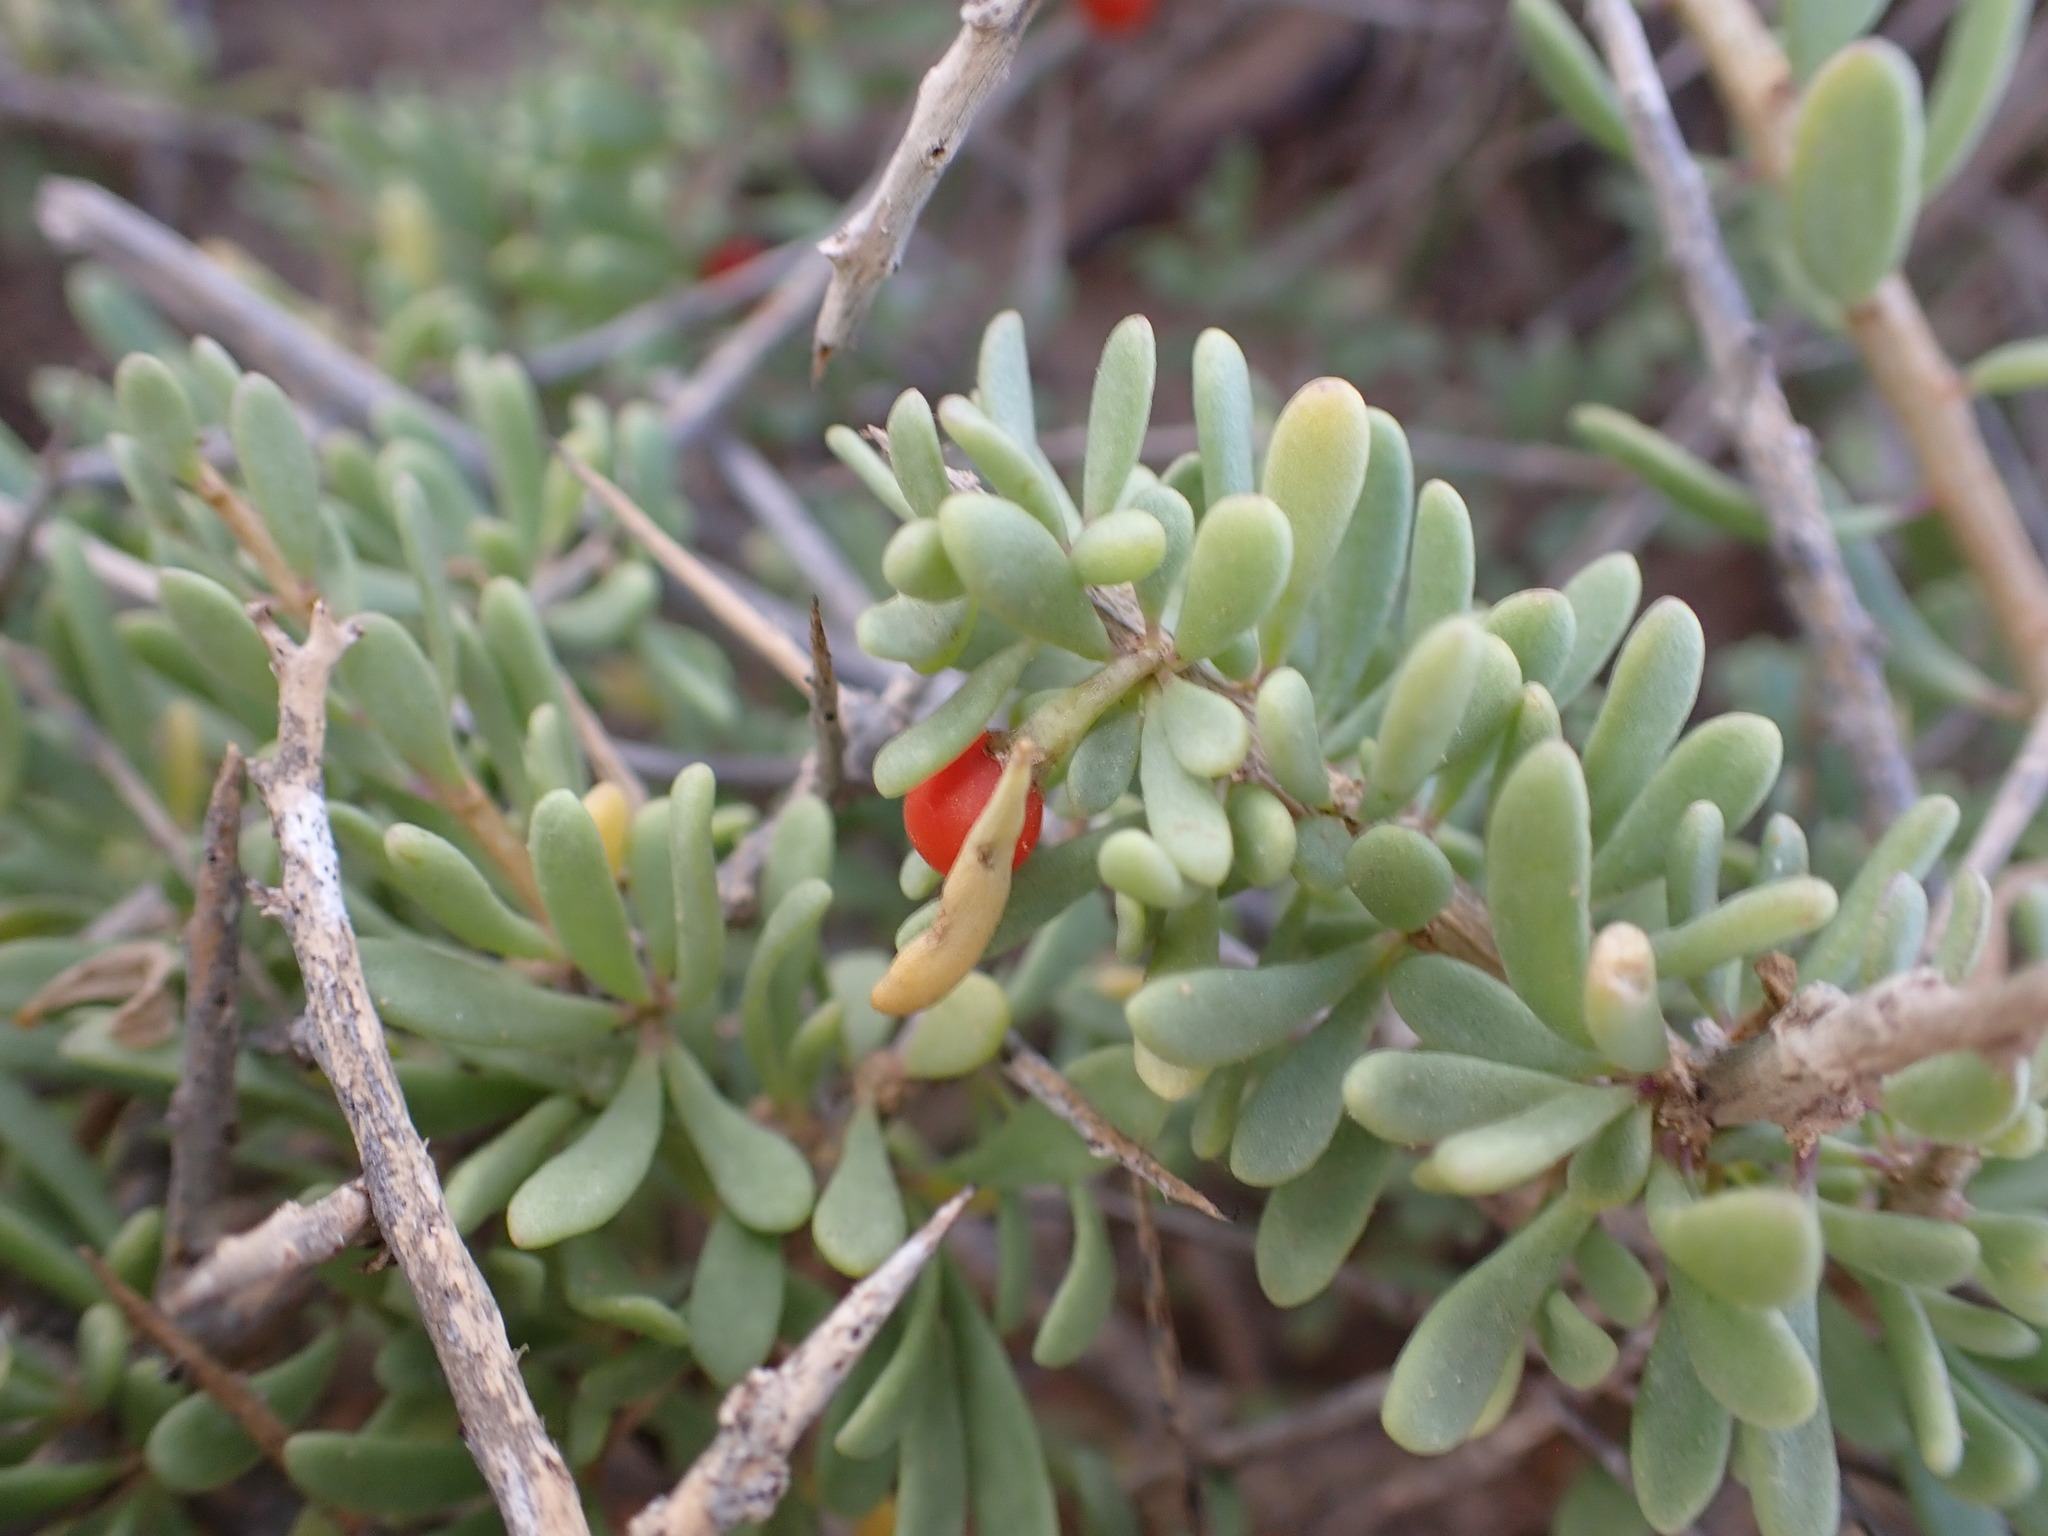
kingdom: Plantae
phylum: Tracheophyta
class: Magnoliopsida
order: Solanales
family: Solanaceae
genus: Lycium
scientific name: Lycium intricatum
